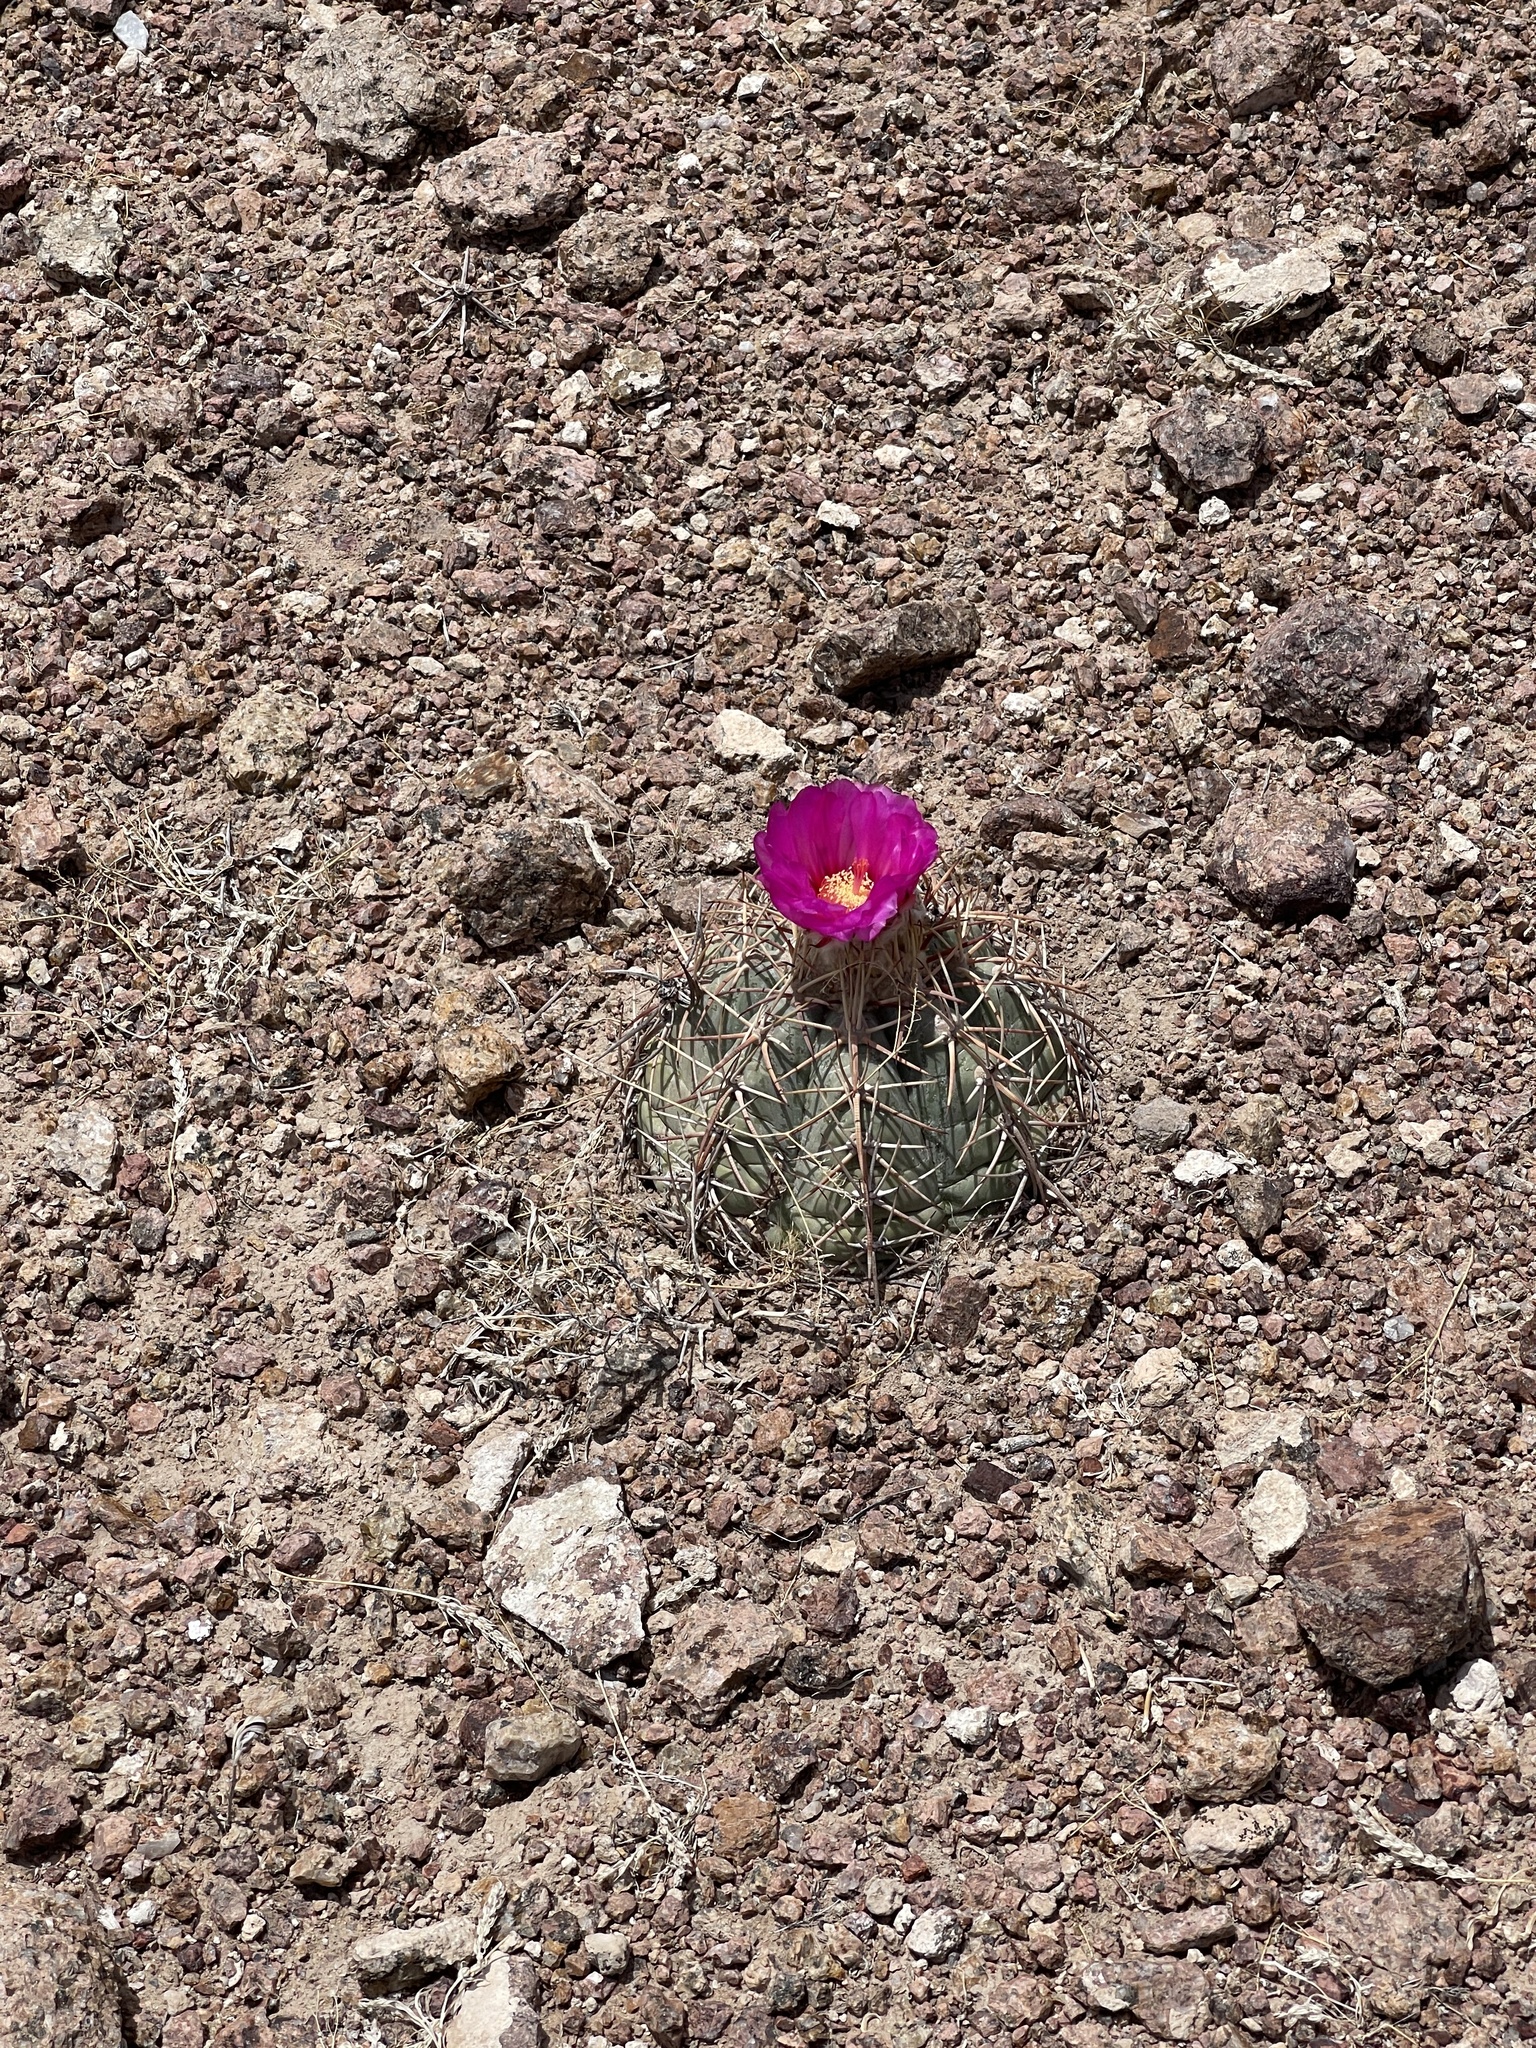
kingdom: Plantae
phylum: Tracheophyta
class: Magnoliopsida
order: Caryophyllales
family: Cactaceae
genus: Echinocactus
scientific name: Echinocactus horizonthalonius
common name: Devilshead
